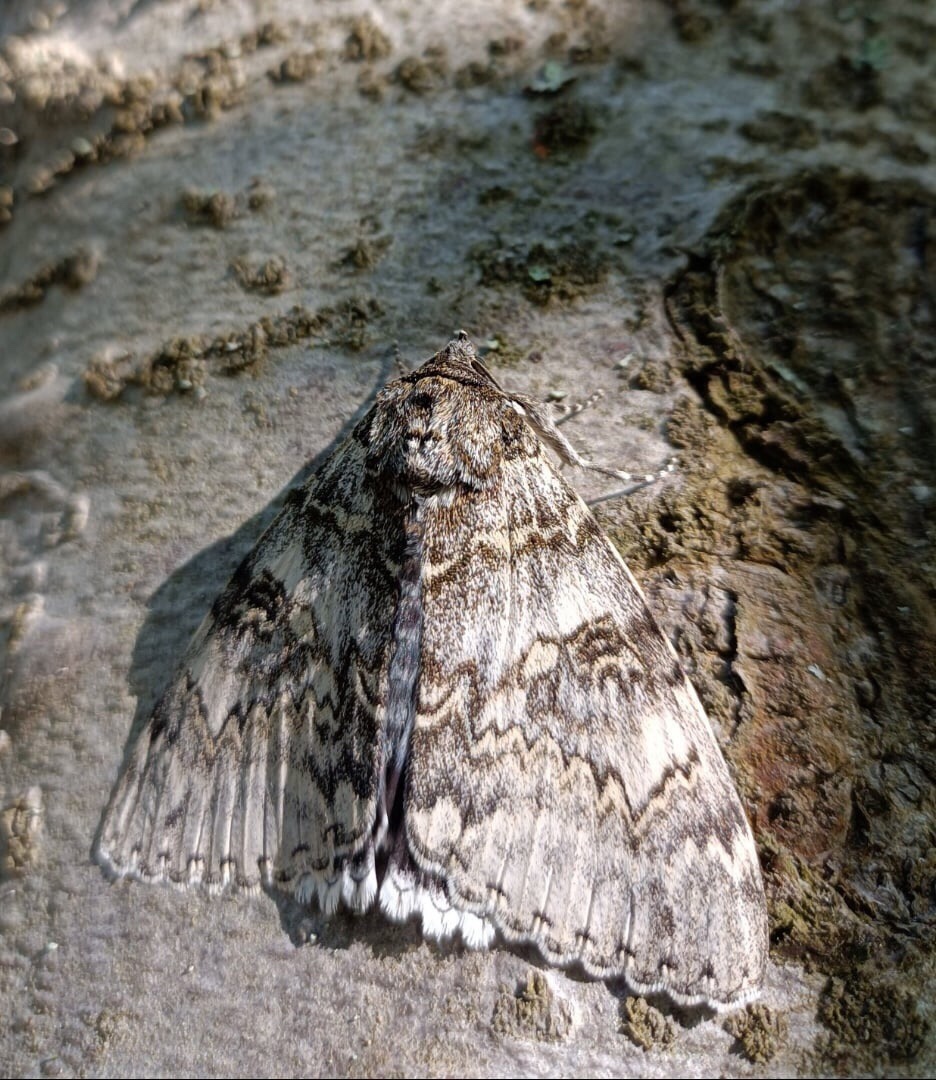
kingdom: Animalia
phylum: Arthropoda
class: Insecta
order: Lepidoptera
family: Erebidae
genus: Catocala
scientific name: Catocala fraxini
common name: Clifden nonpareil
